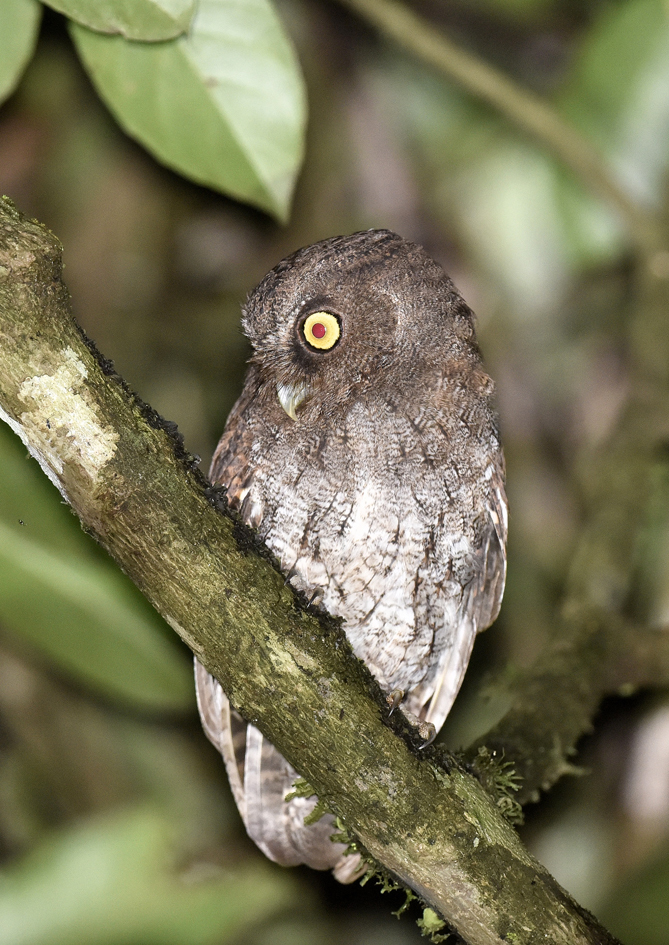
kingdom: Animalia
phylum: Chordata
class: Aves
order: Strigiformes
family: Strigidae
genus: Megascops
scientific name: Megascops roraimae
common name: Roraiman screech owl
